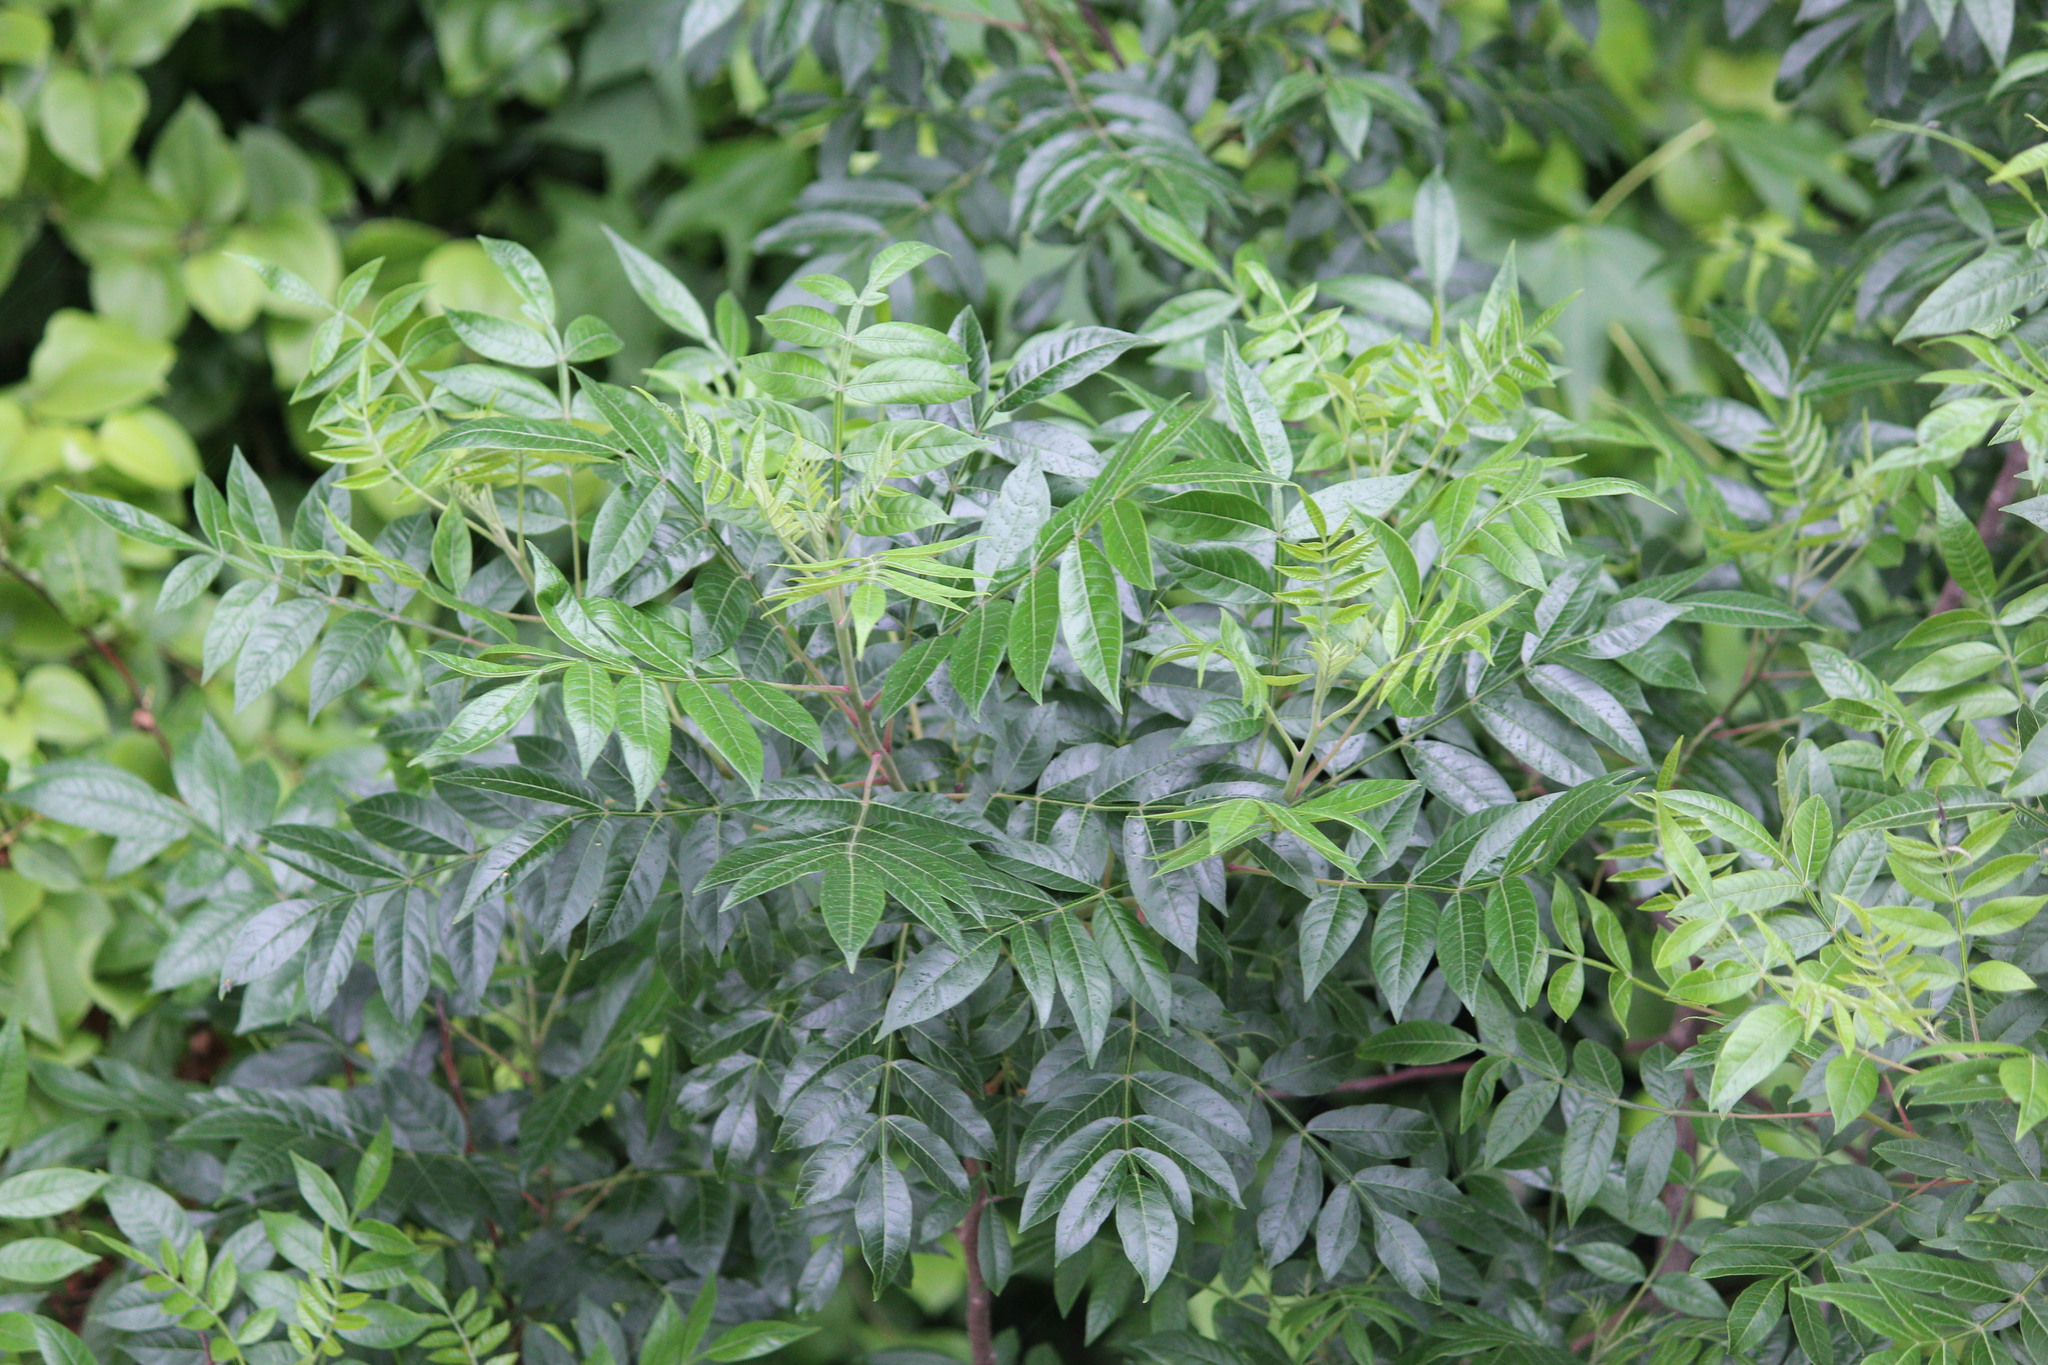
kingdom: Plantae
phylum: Tracheophyta
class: Magnoliopsida
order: Sapindales
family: Anacardiaceae
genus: Rhus
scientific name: Rhus copallina
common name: Shining sumac
